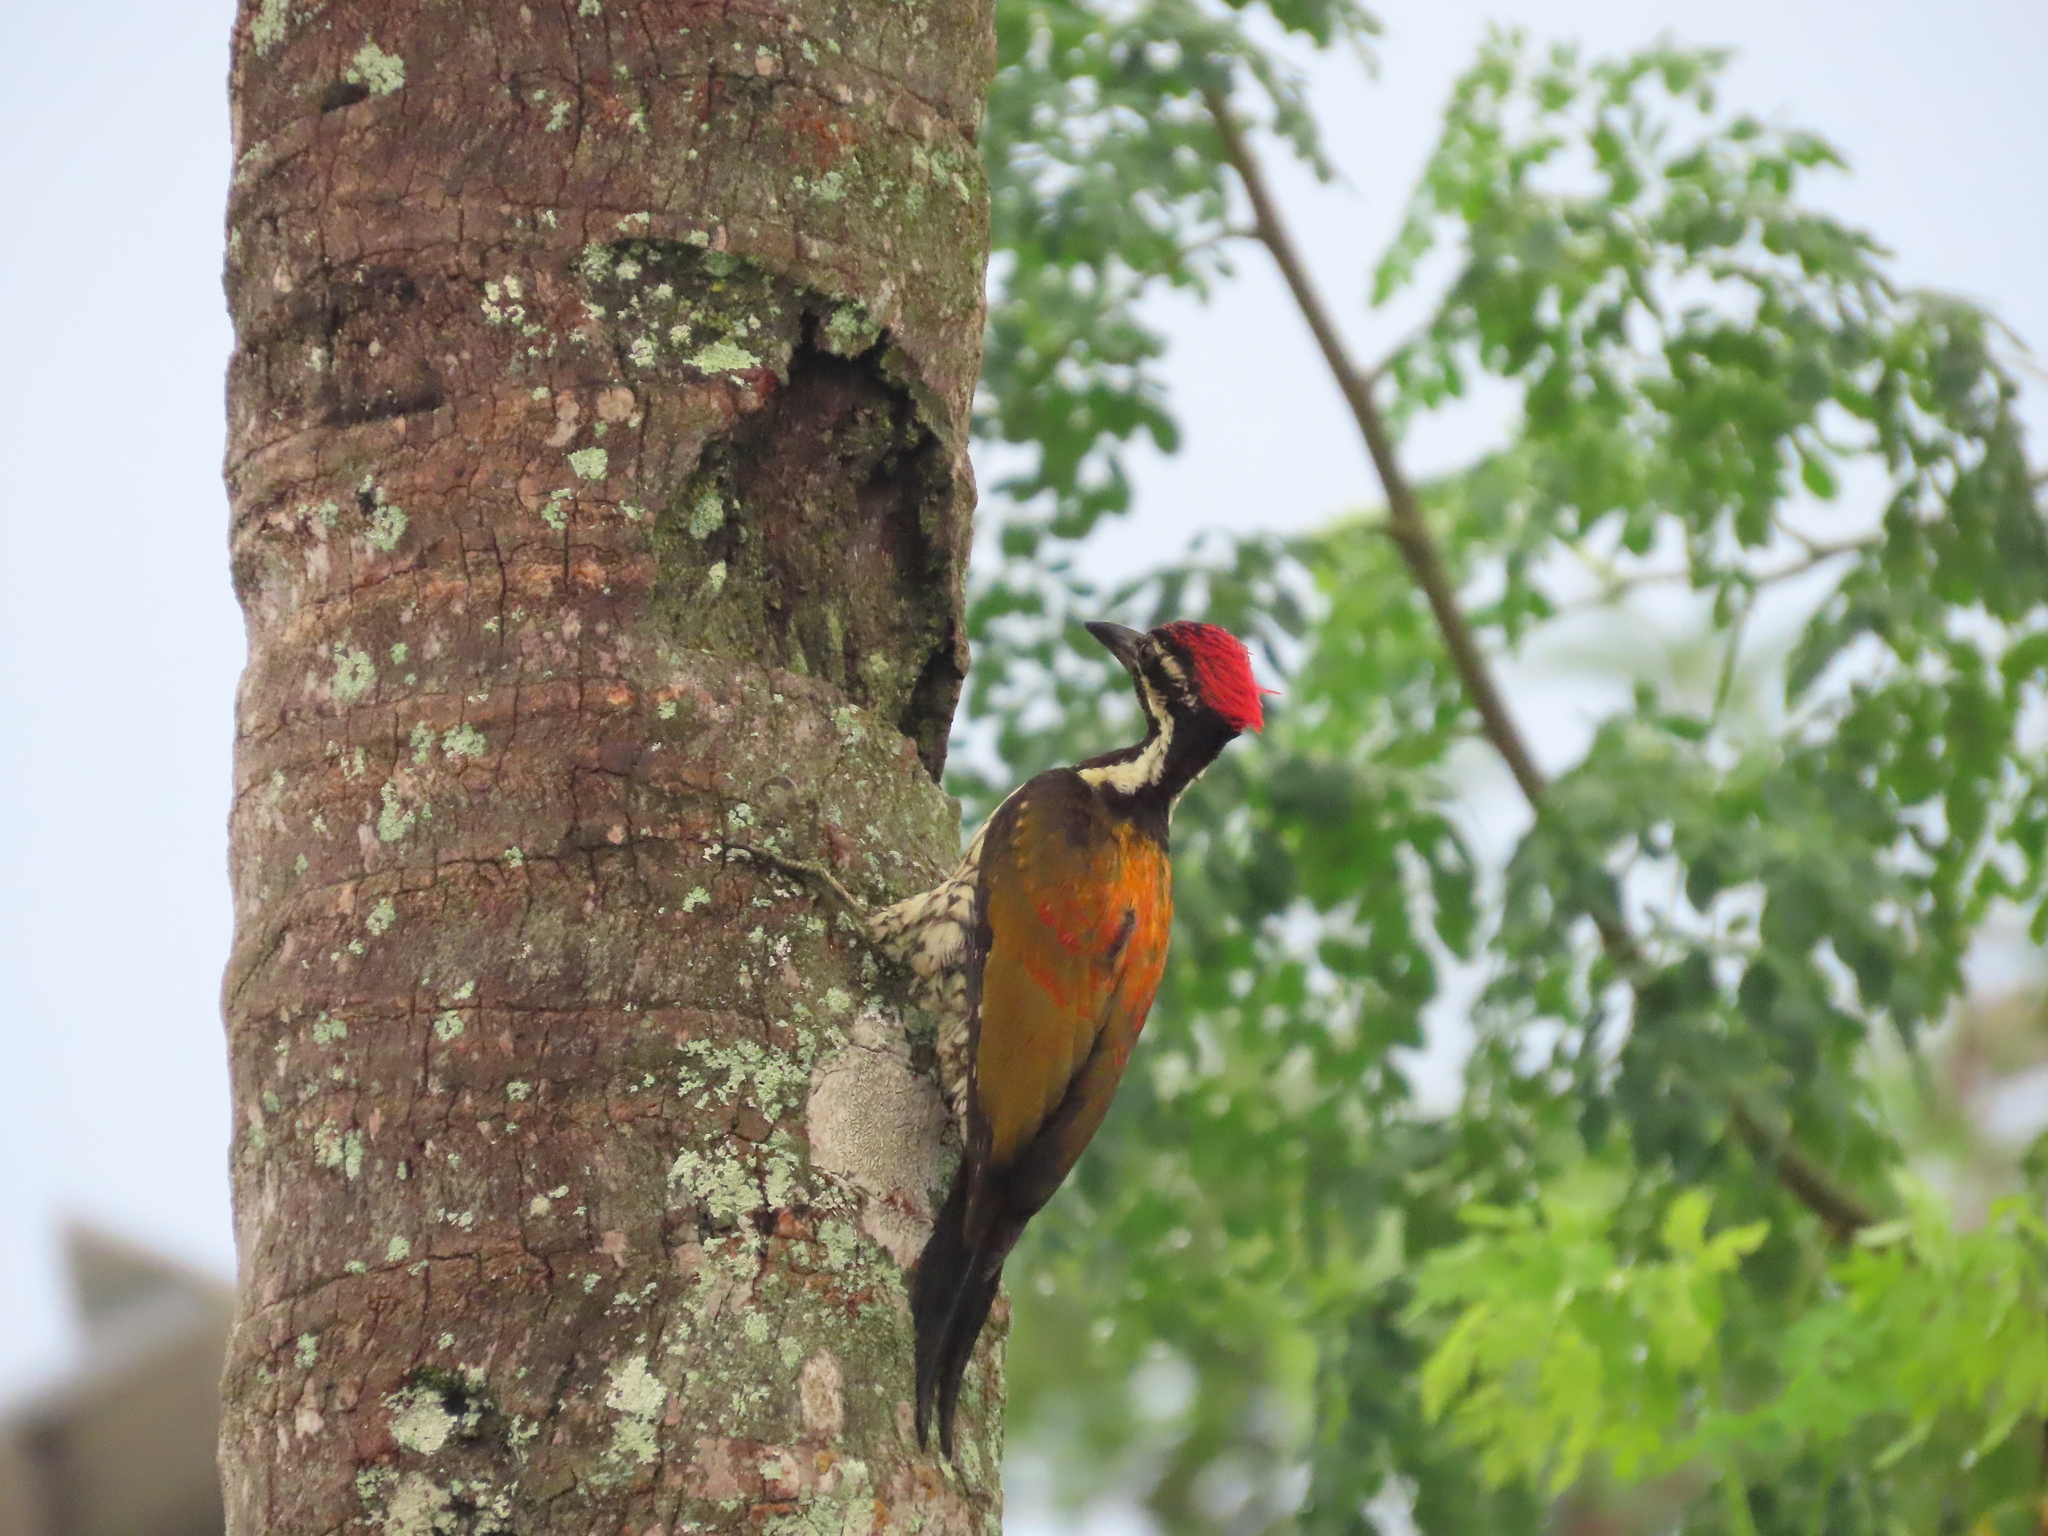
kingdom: Animalia
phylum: Chordata
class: Aves
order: Piciformes
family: Picidae
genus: Dinopium
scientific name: Dinopium benghalense
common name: Black-rumped flameback
